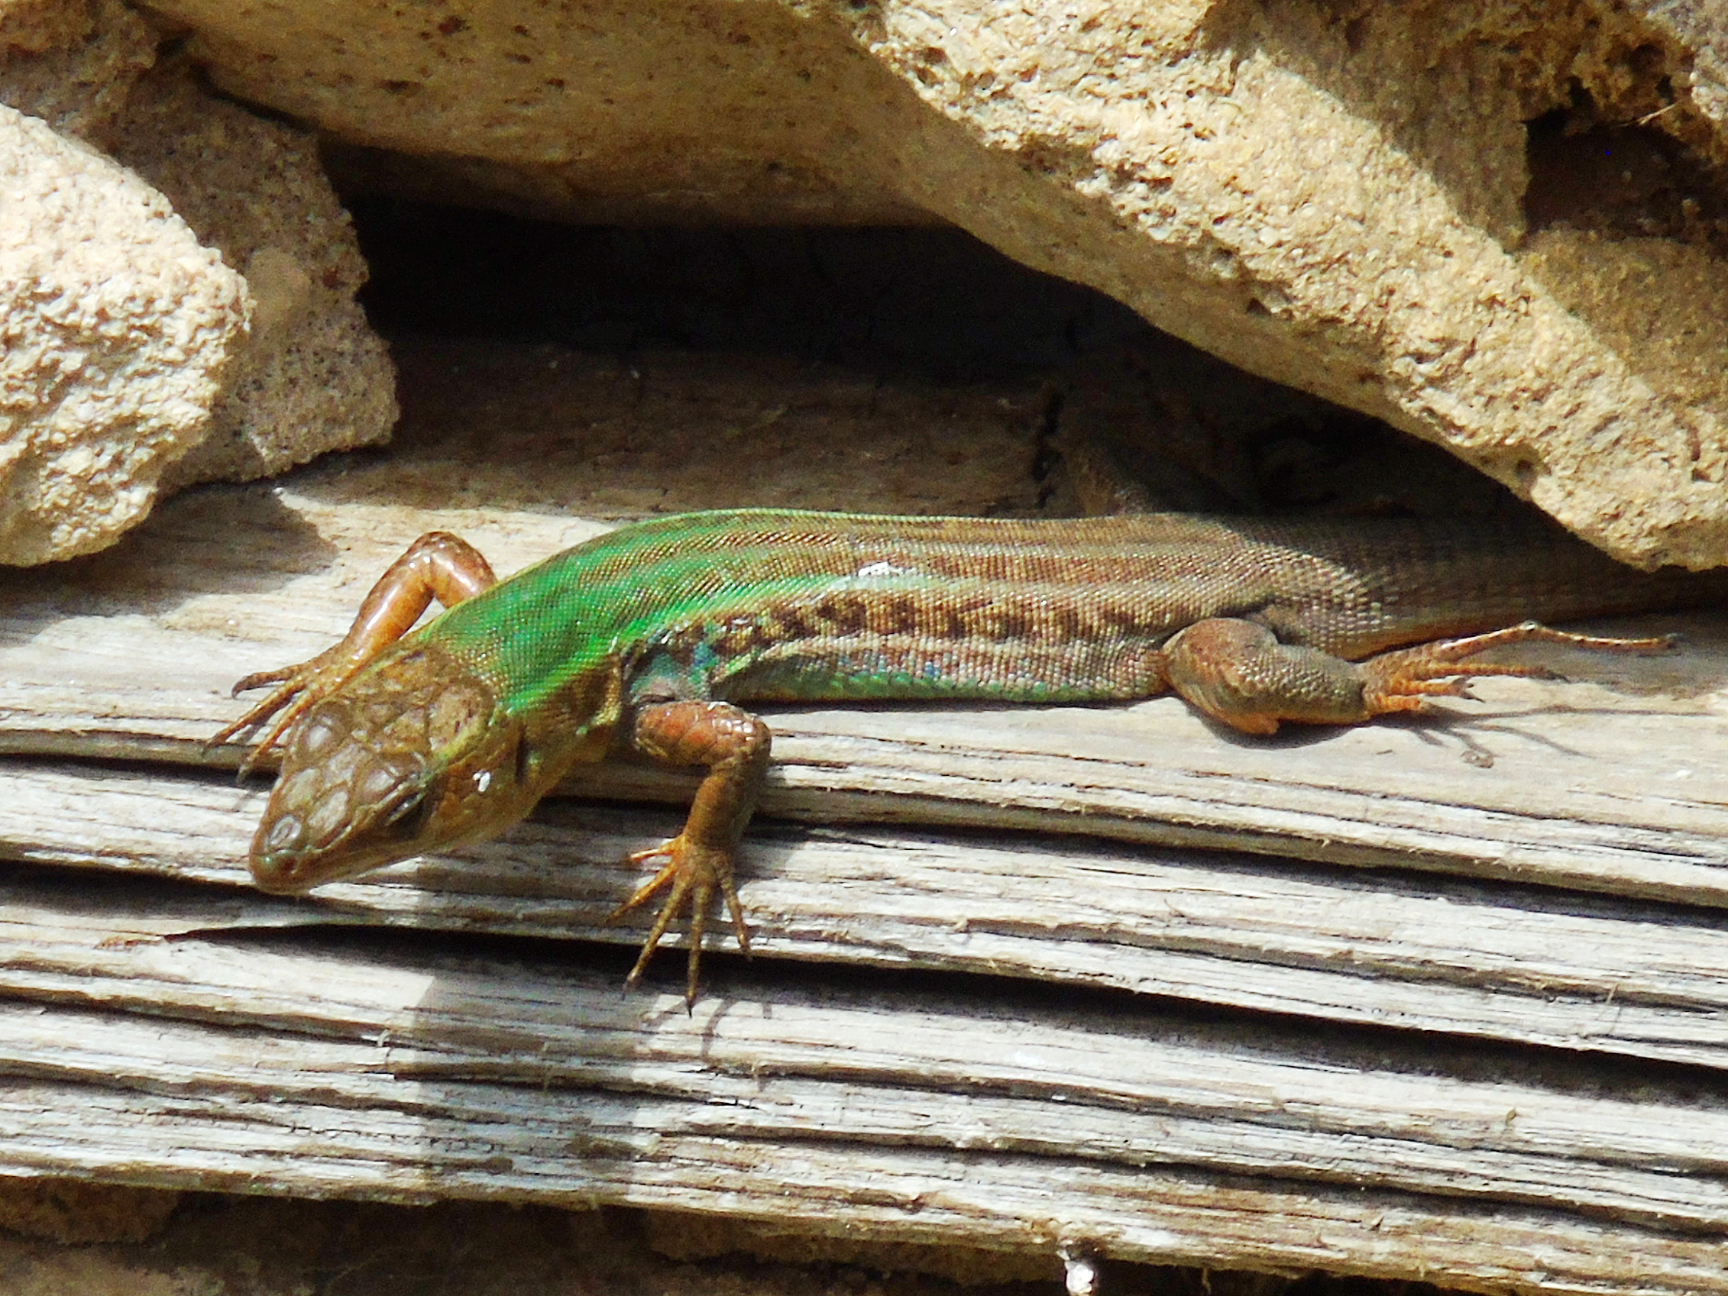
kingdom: Animalia
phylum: Chordata
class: Squamata
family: Lacertidae
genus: Podarcis
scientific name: Podarcis peloponnesiacus
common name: Peloponnese wall lizard
